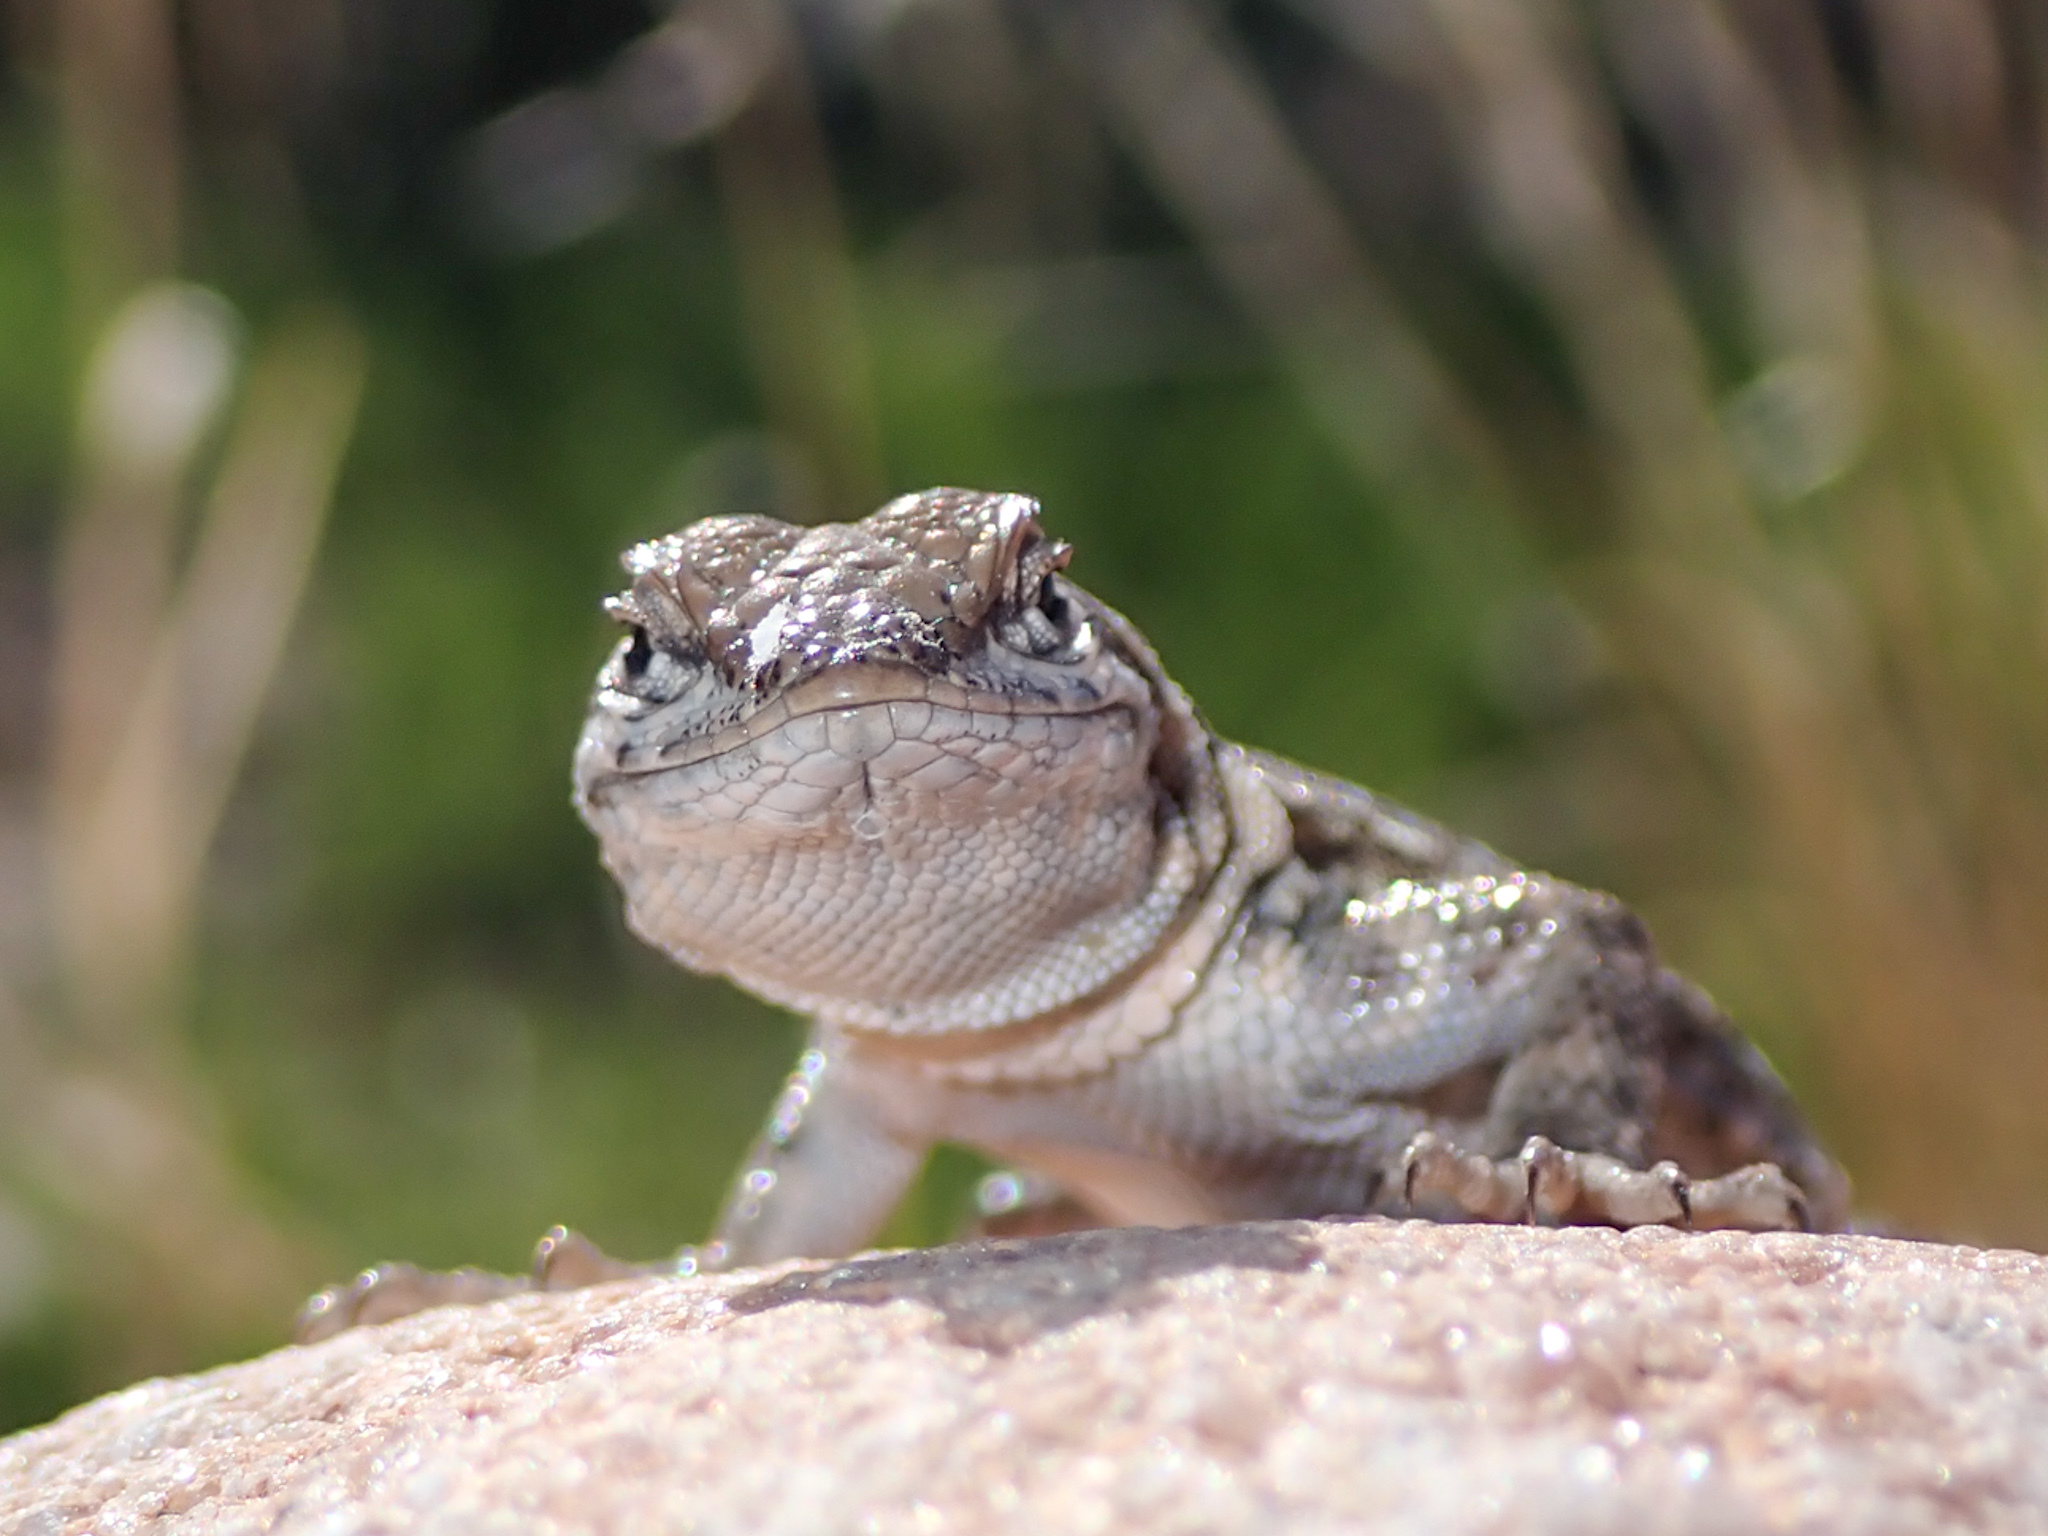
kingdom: Animalia
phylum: Chordata
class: Squamata
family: Phrynosomatidae
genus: Uta
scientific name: Uta stansburiana
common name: Side-blotched lizard
